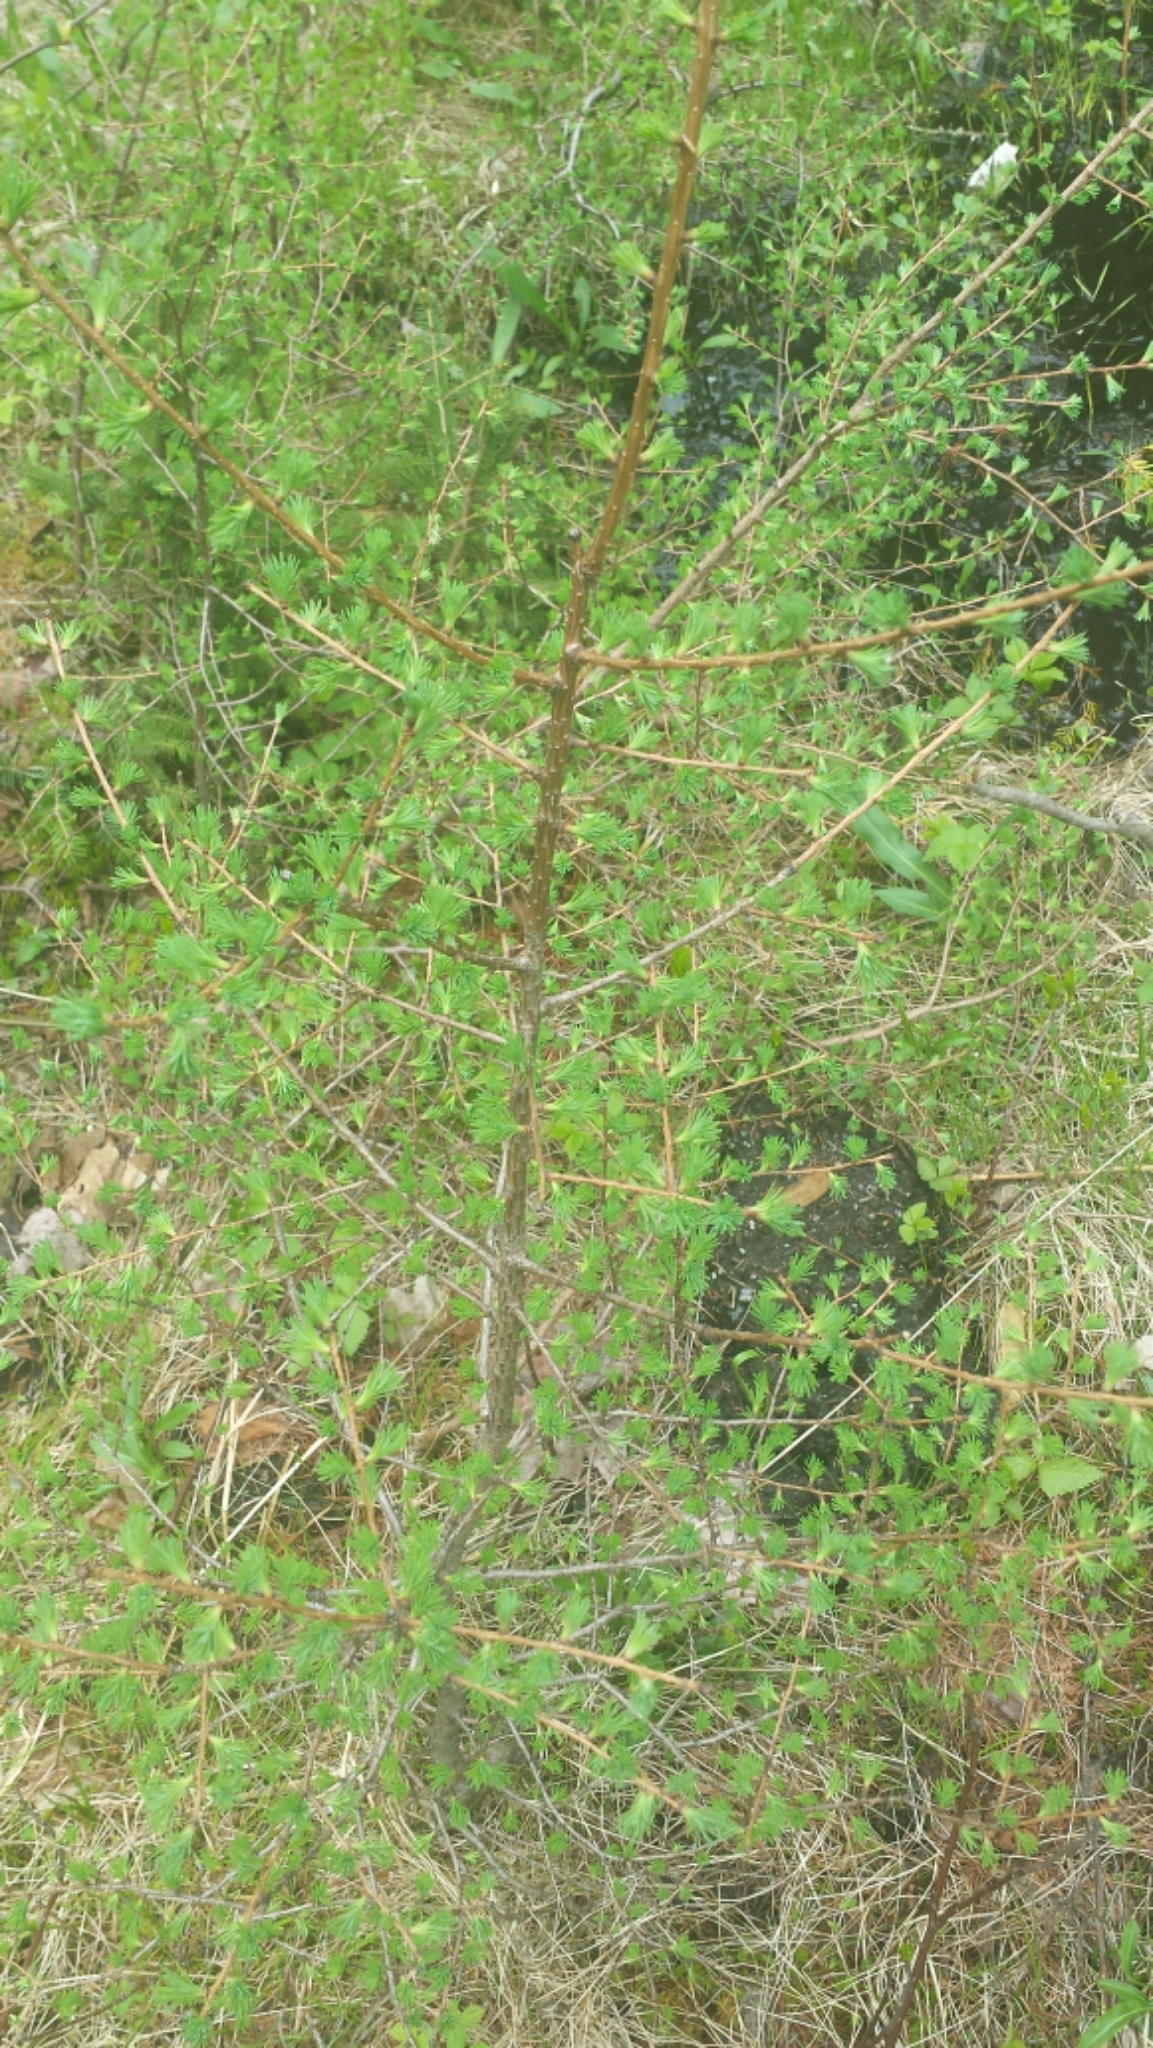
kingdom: Plantae
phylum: Tracheophyta
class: Pinopsida
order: Pinales
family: Pinaceae
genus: Larix
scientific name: Larix laricina
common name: American larch
